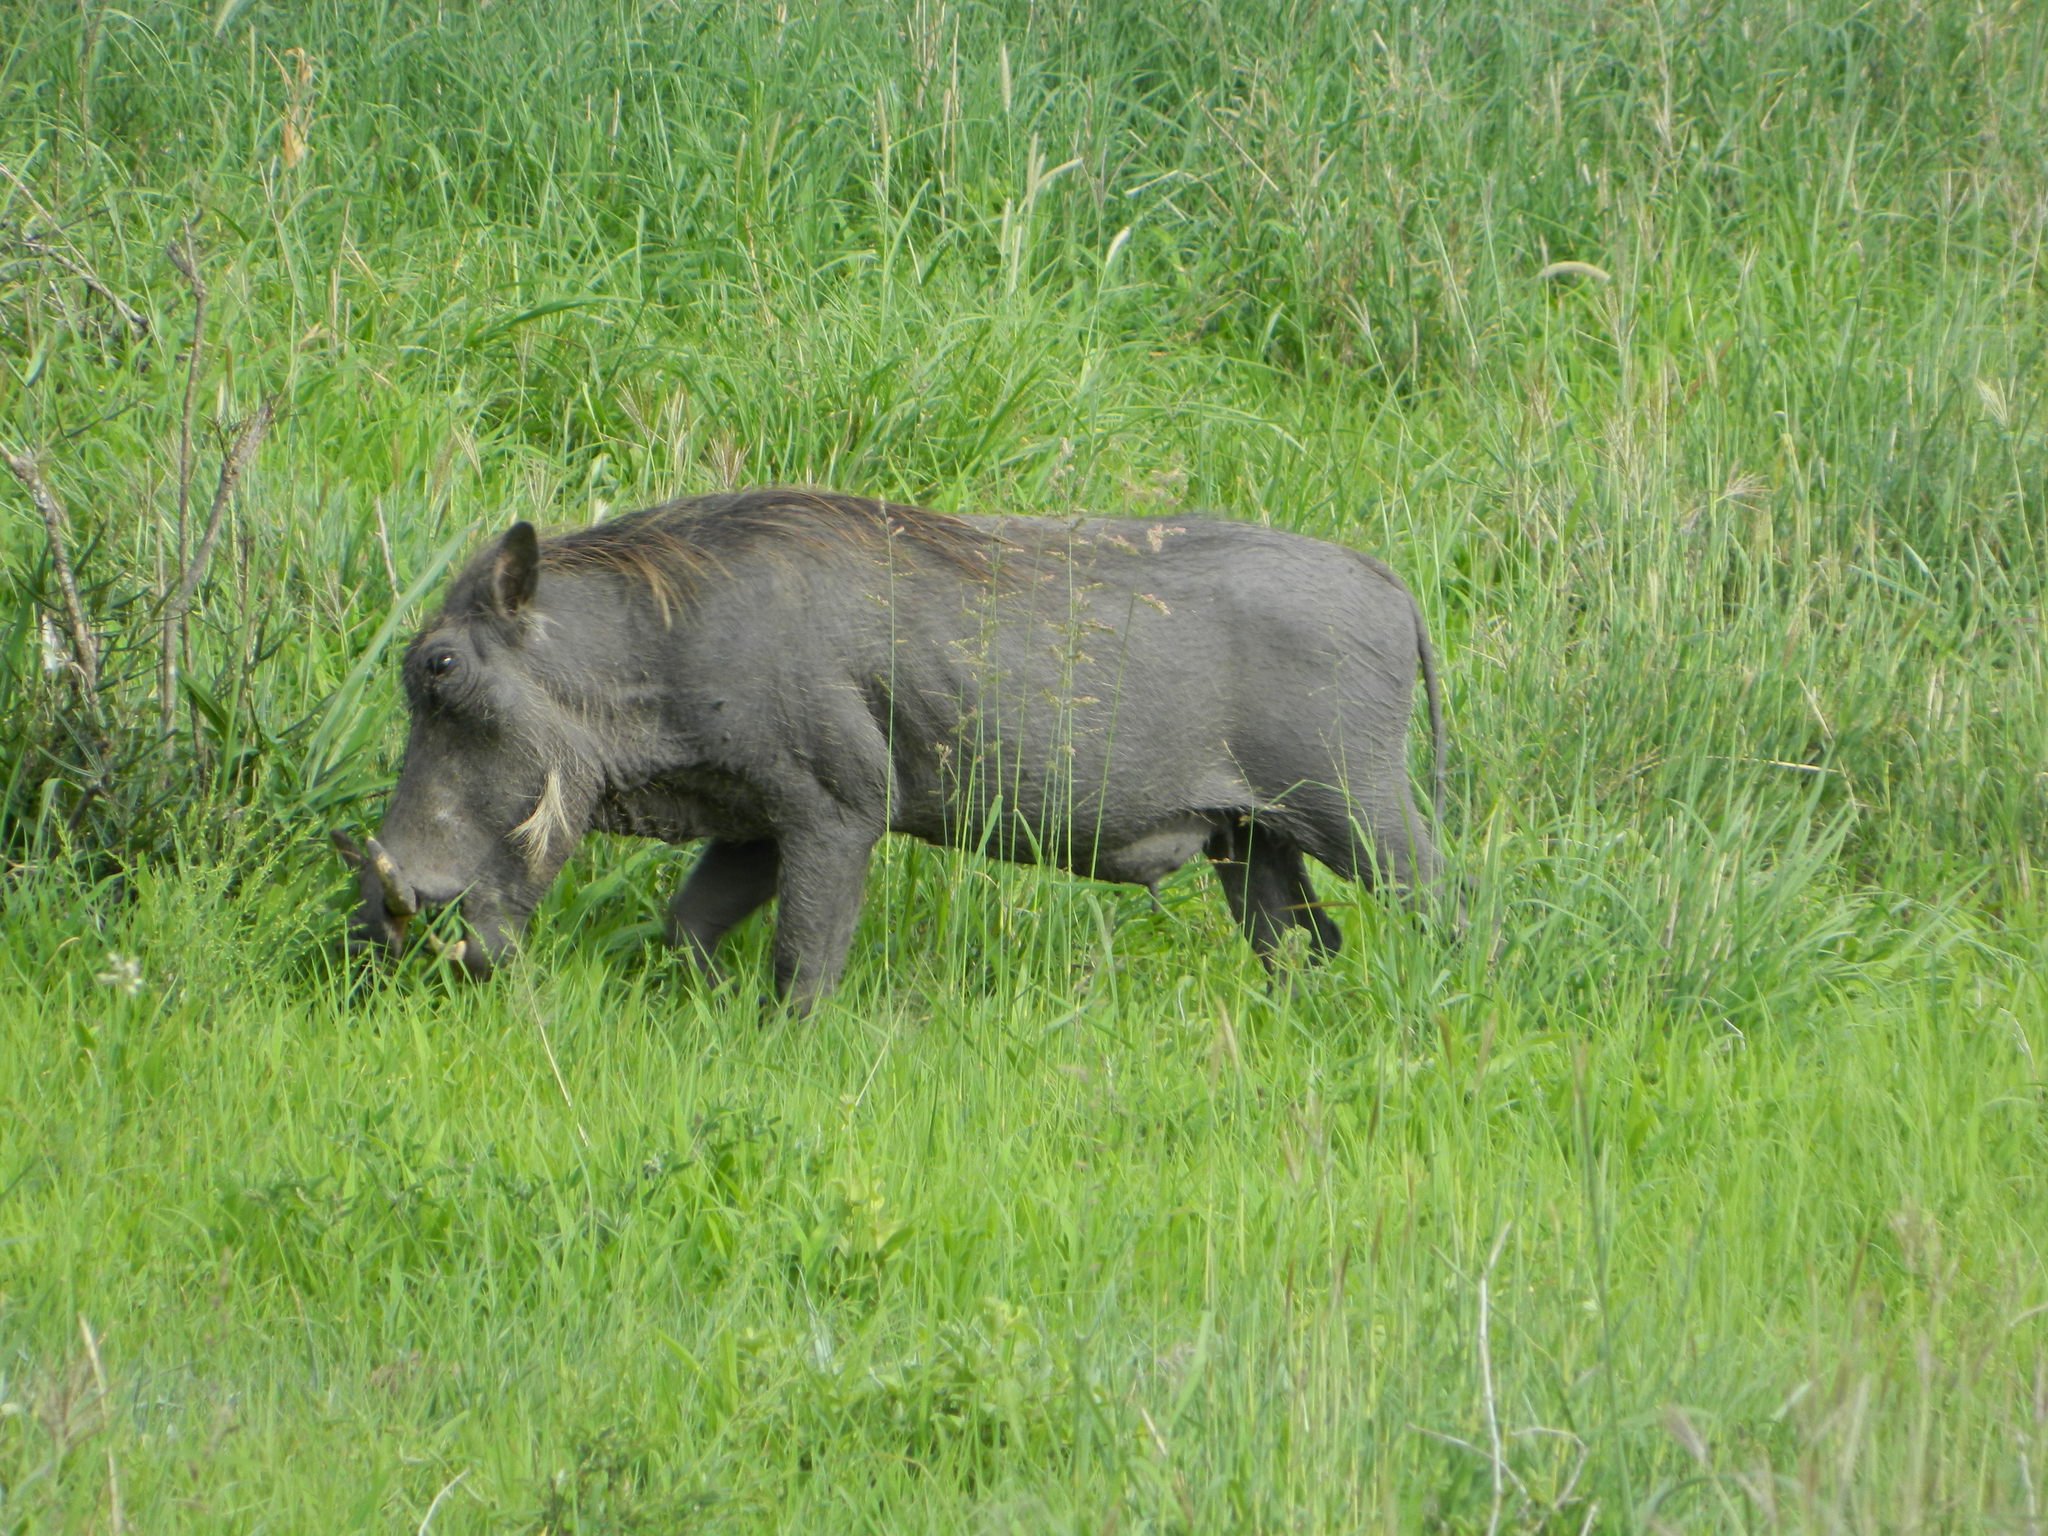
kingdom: Animalia
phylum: Chordata
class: Mammalia
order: Artiodactyla
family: Suidae
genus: Phacochoerus
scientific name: Phacochoerus africanus
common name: Common warthog
